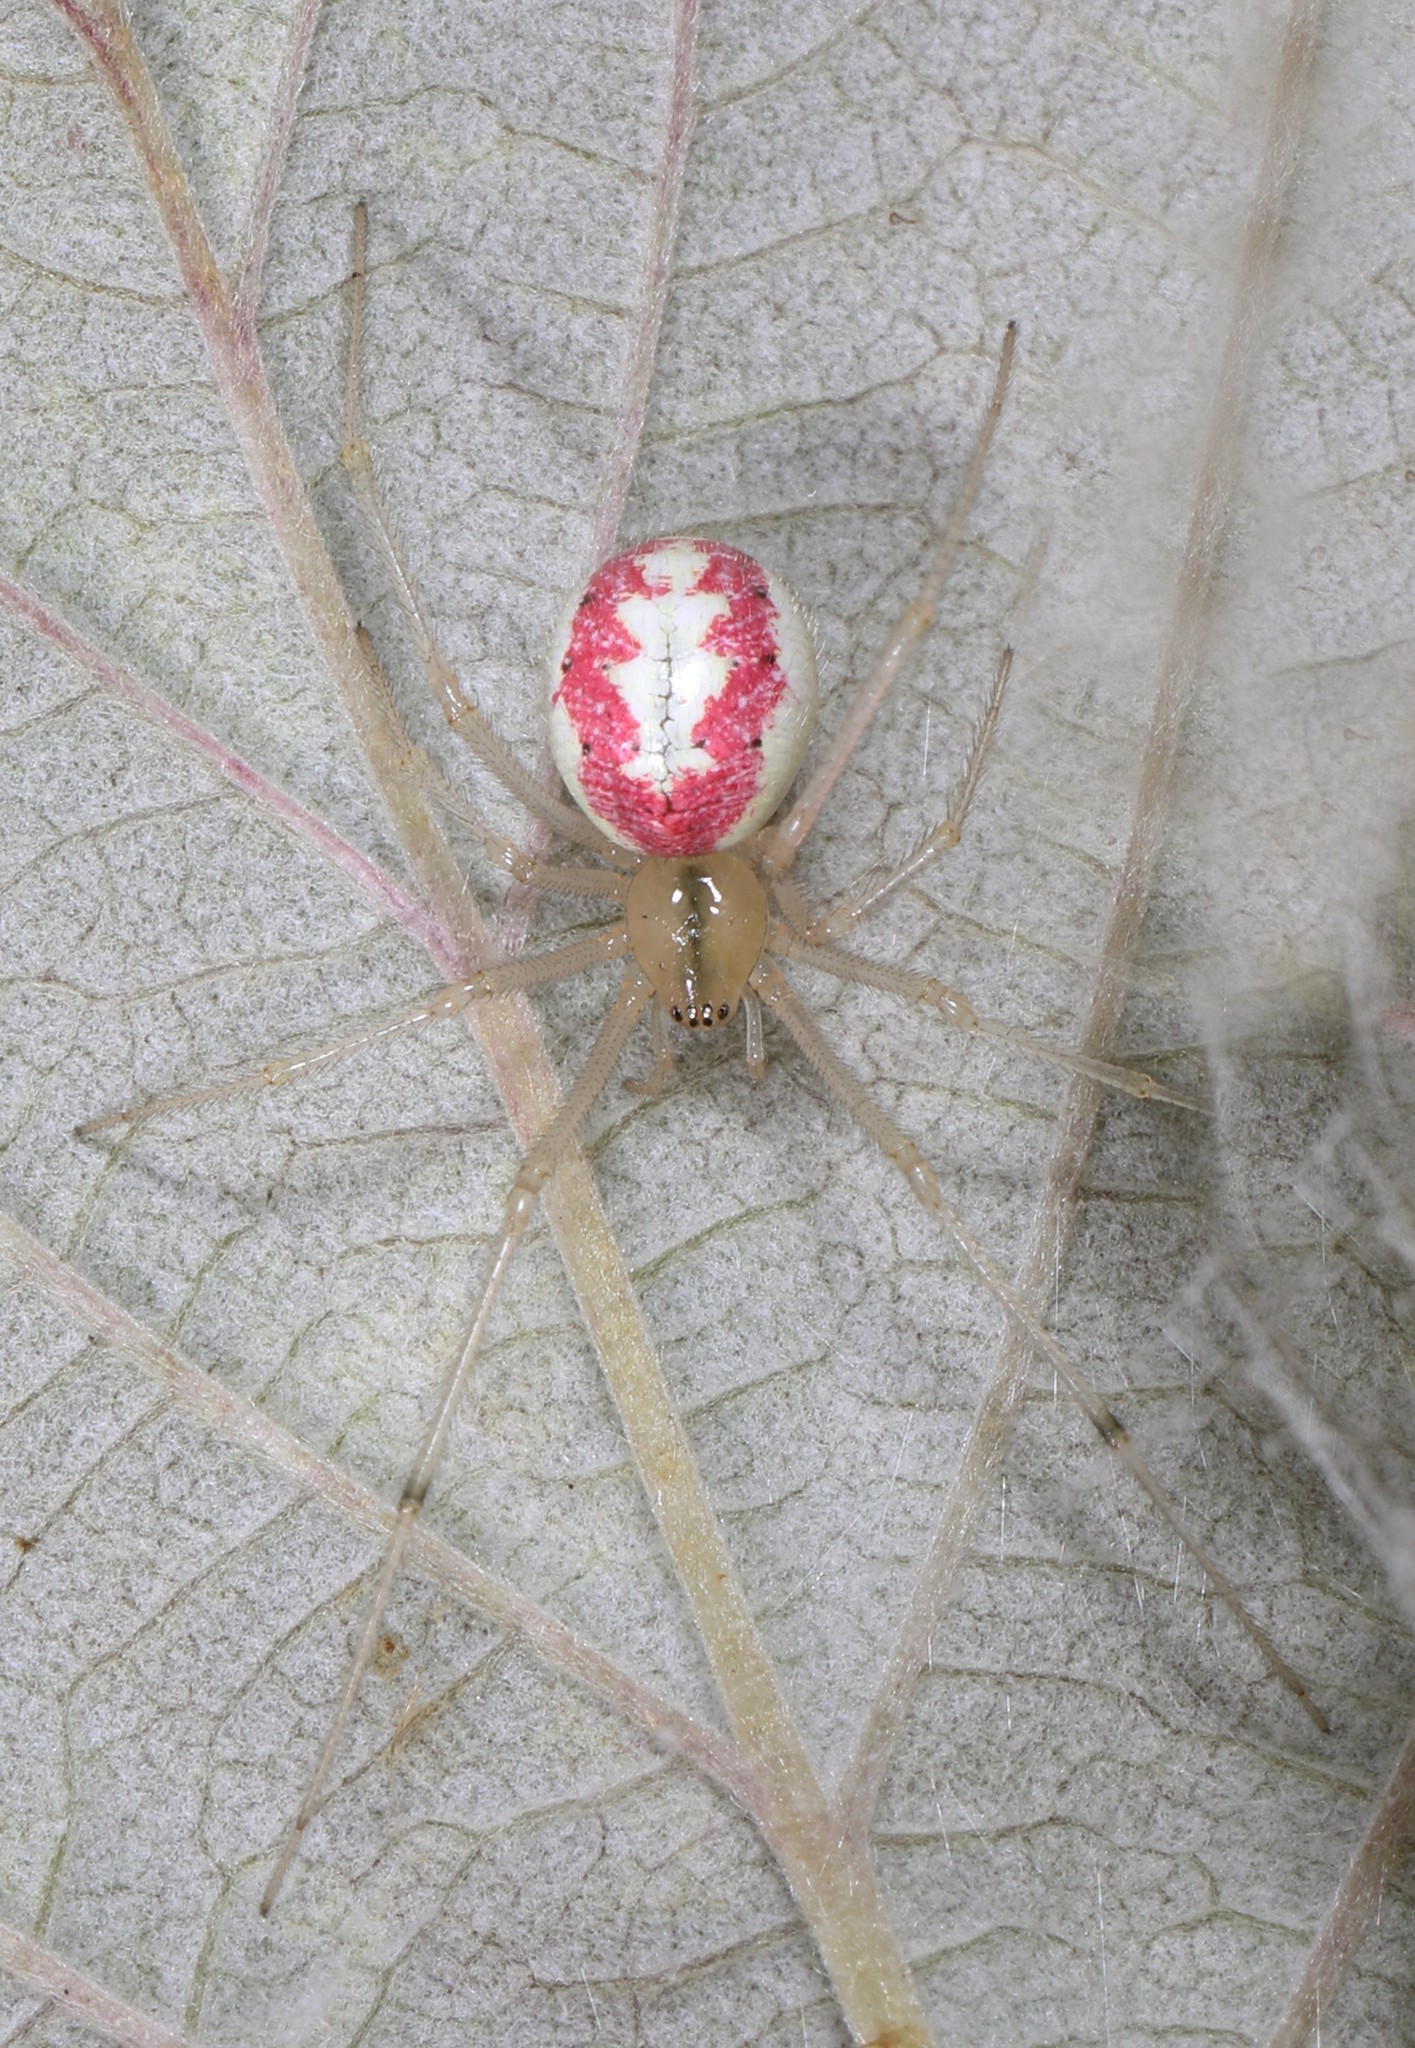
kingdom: Animalia
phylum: Arthropoda
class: Arachnida
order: Araneae
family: Theridiidae
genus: Enoplognatha
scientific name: Enoplognatha ovata
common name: Common candy-striped spider
